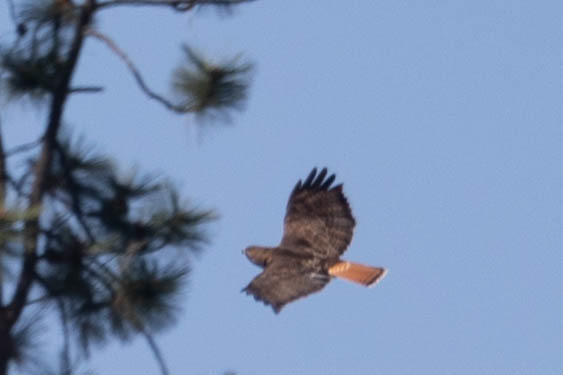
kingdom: Animalia
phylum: Chordata
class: Aves
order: Accipitriformes
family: Accipitridae
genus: Buteo
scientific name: Buteo jamaicensis
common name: Red-tailed hawk
